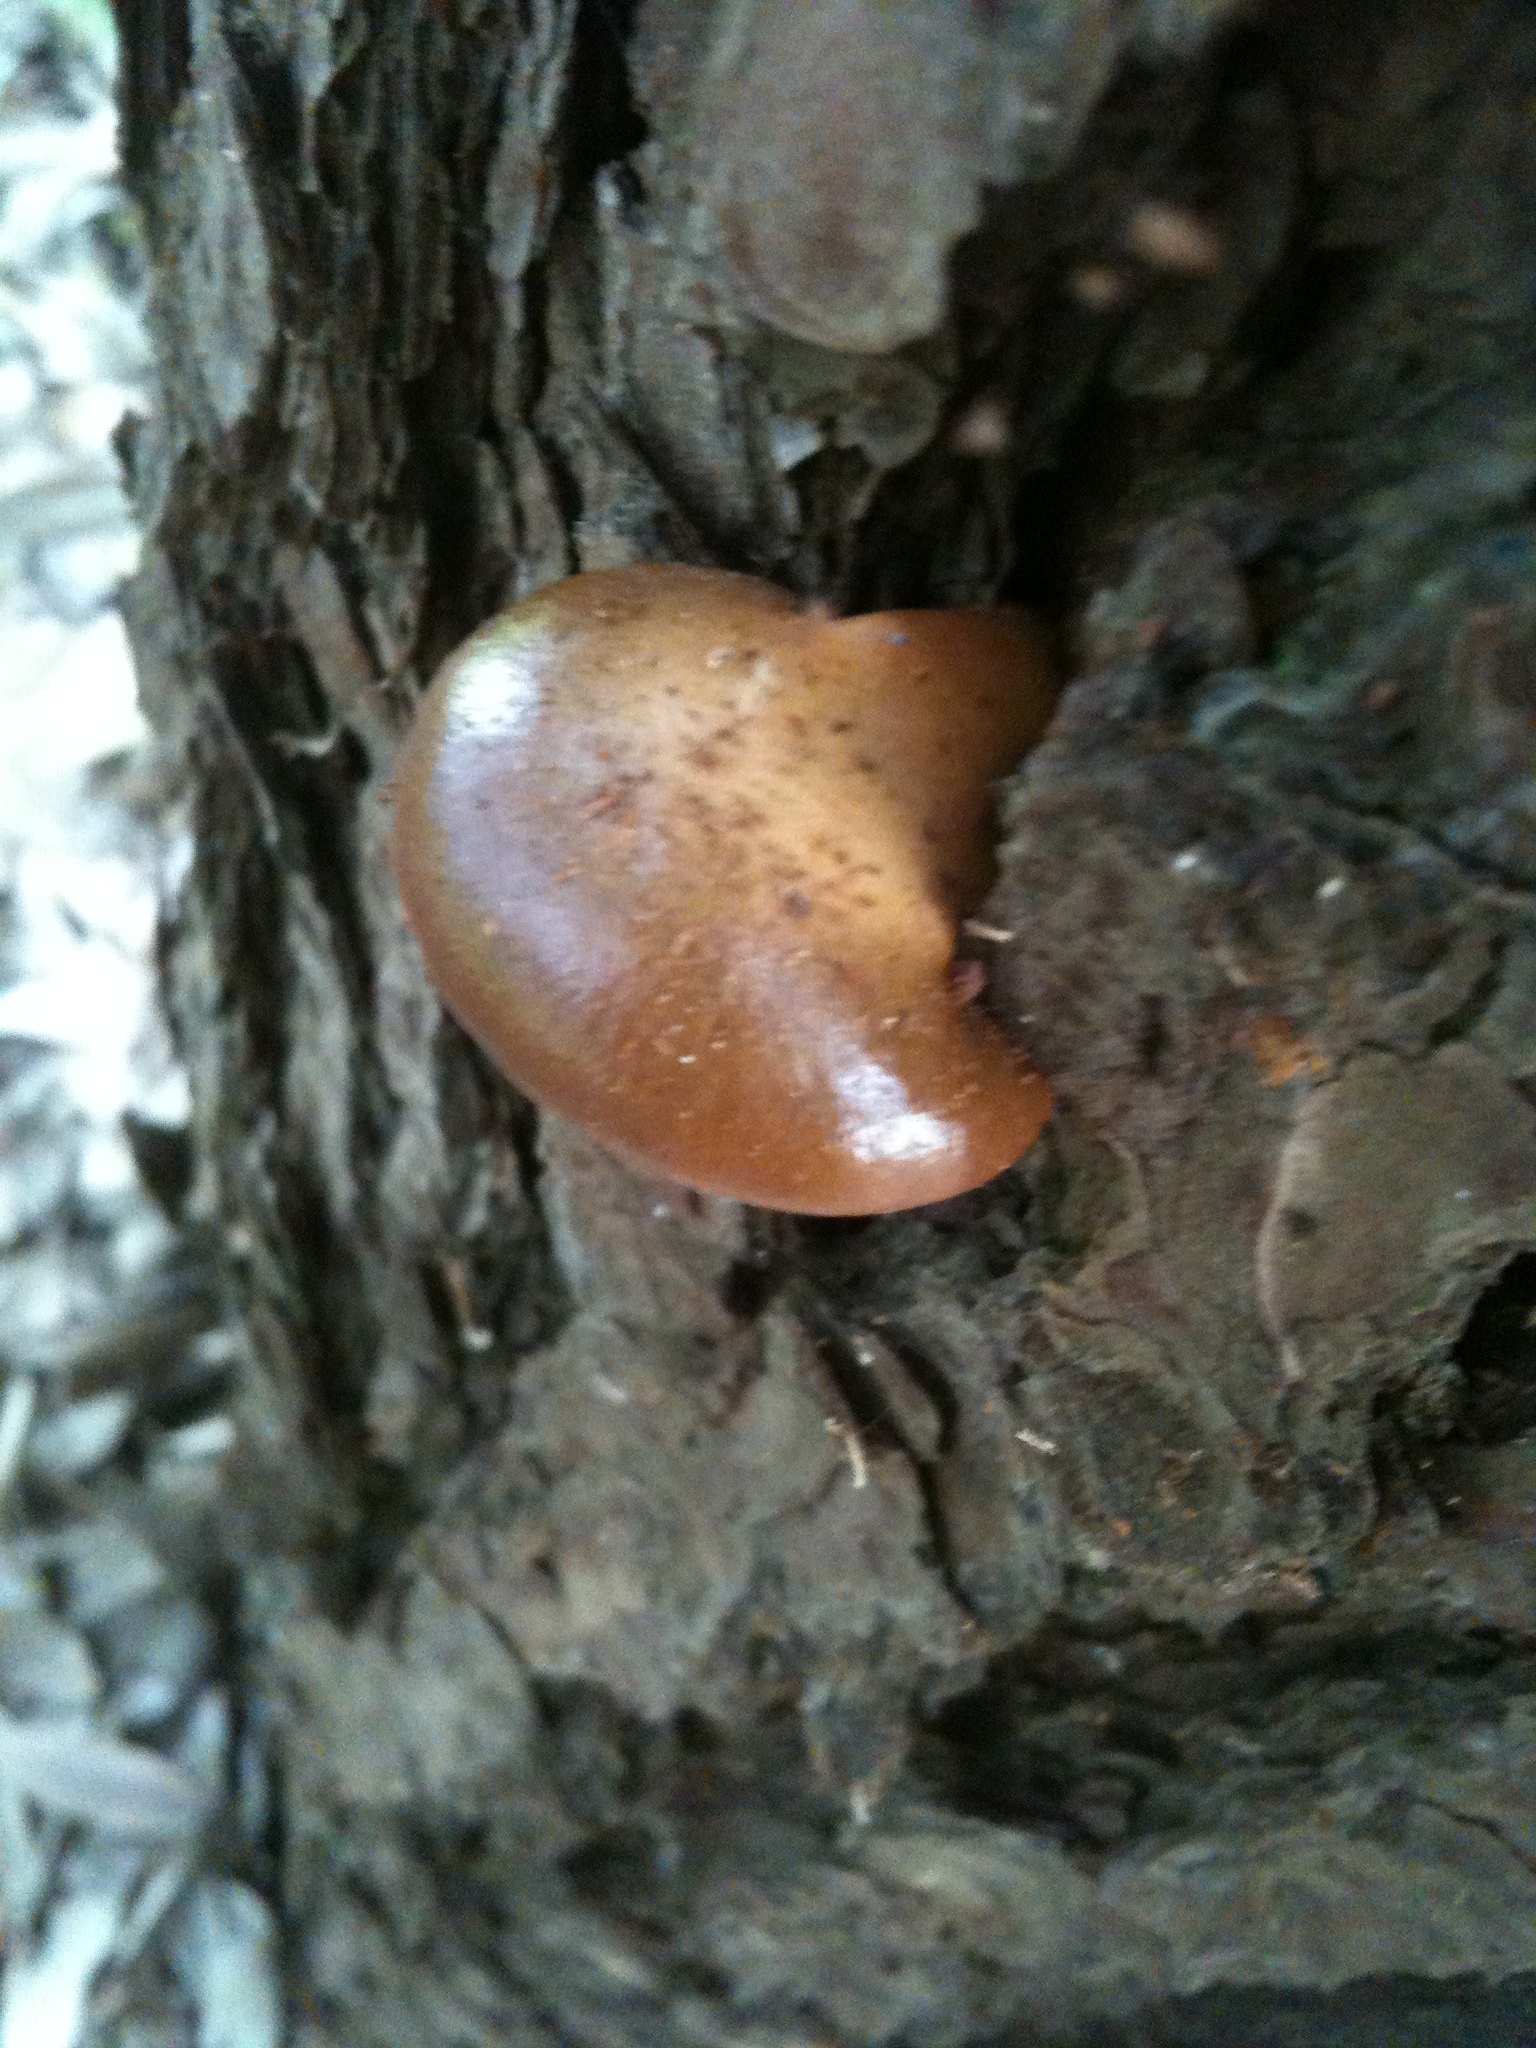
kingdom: Fungi
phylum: Basidiomycota
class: Agaricomycetes
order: Polyporales
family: Polyporaceae
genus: Cryptoporus
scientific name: Cryptoporus volvatus
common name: Veiled polypore
